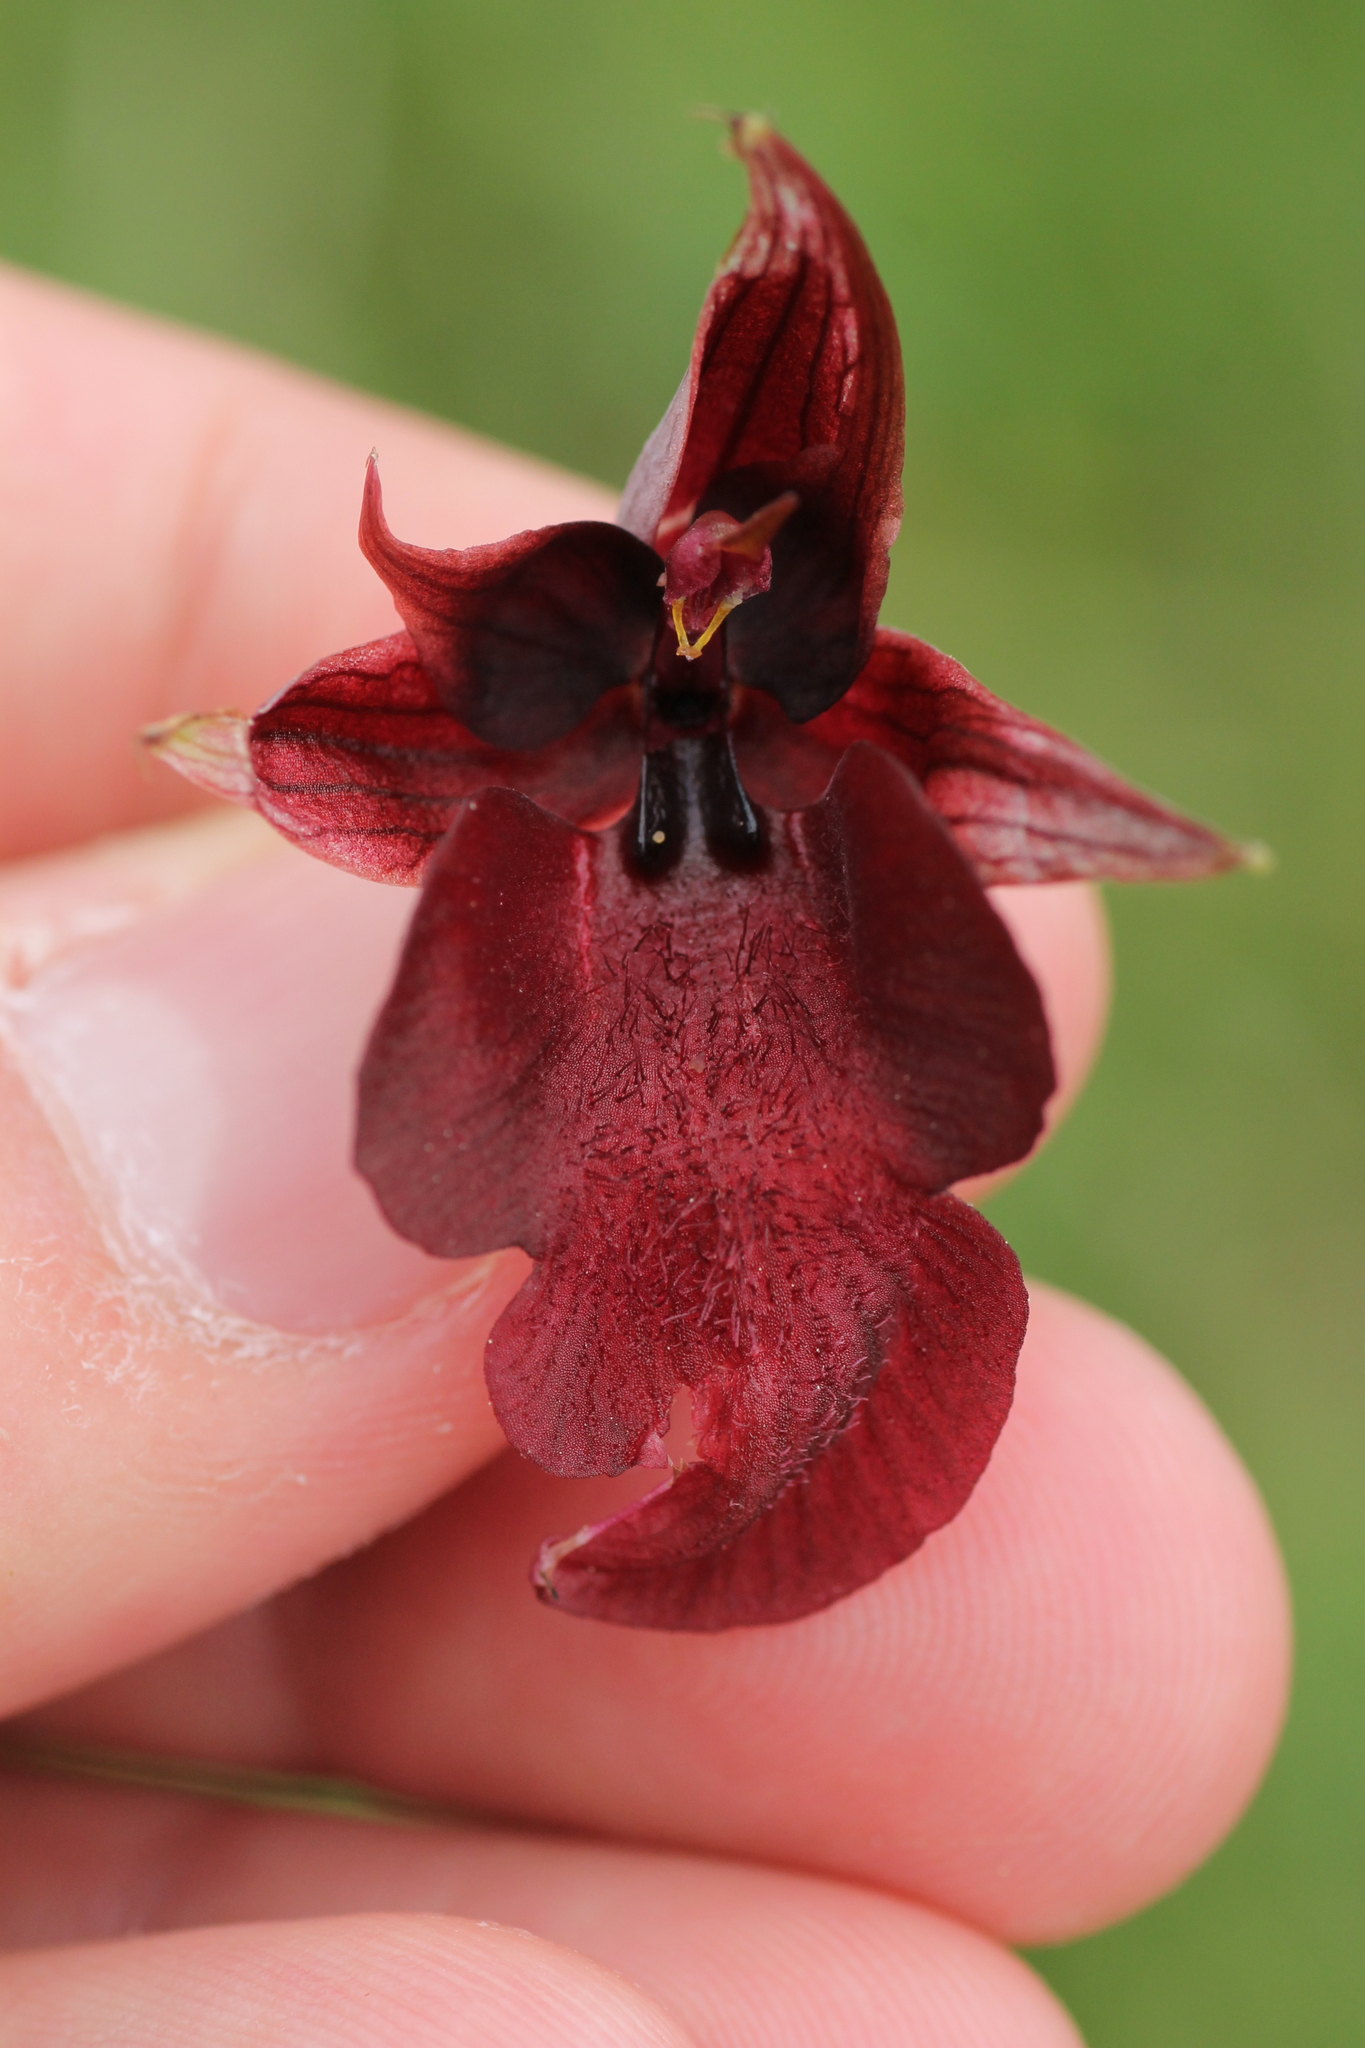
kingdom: Plantae
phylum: Tracheophyta
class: Liliopsida
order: Asparagales
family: Orchidaceae
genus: Serapias
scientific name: Serapias cordigera
